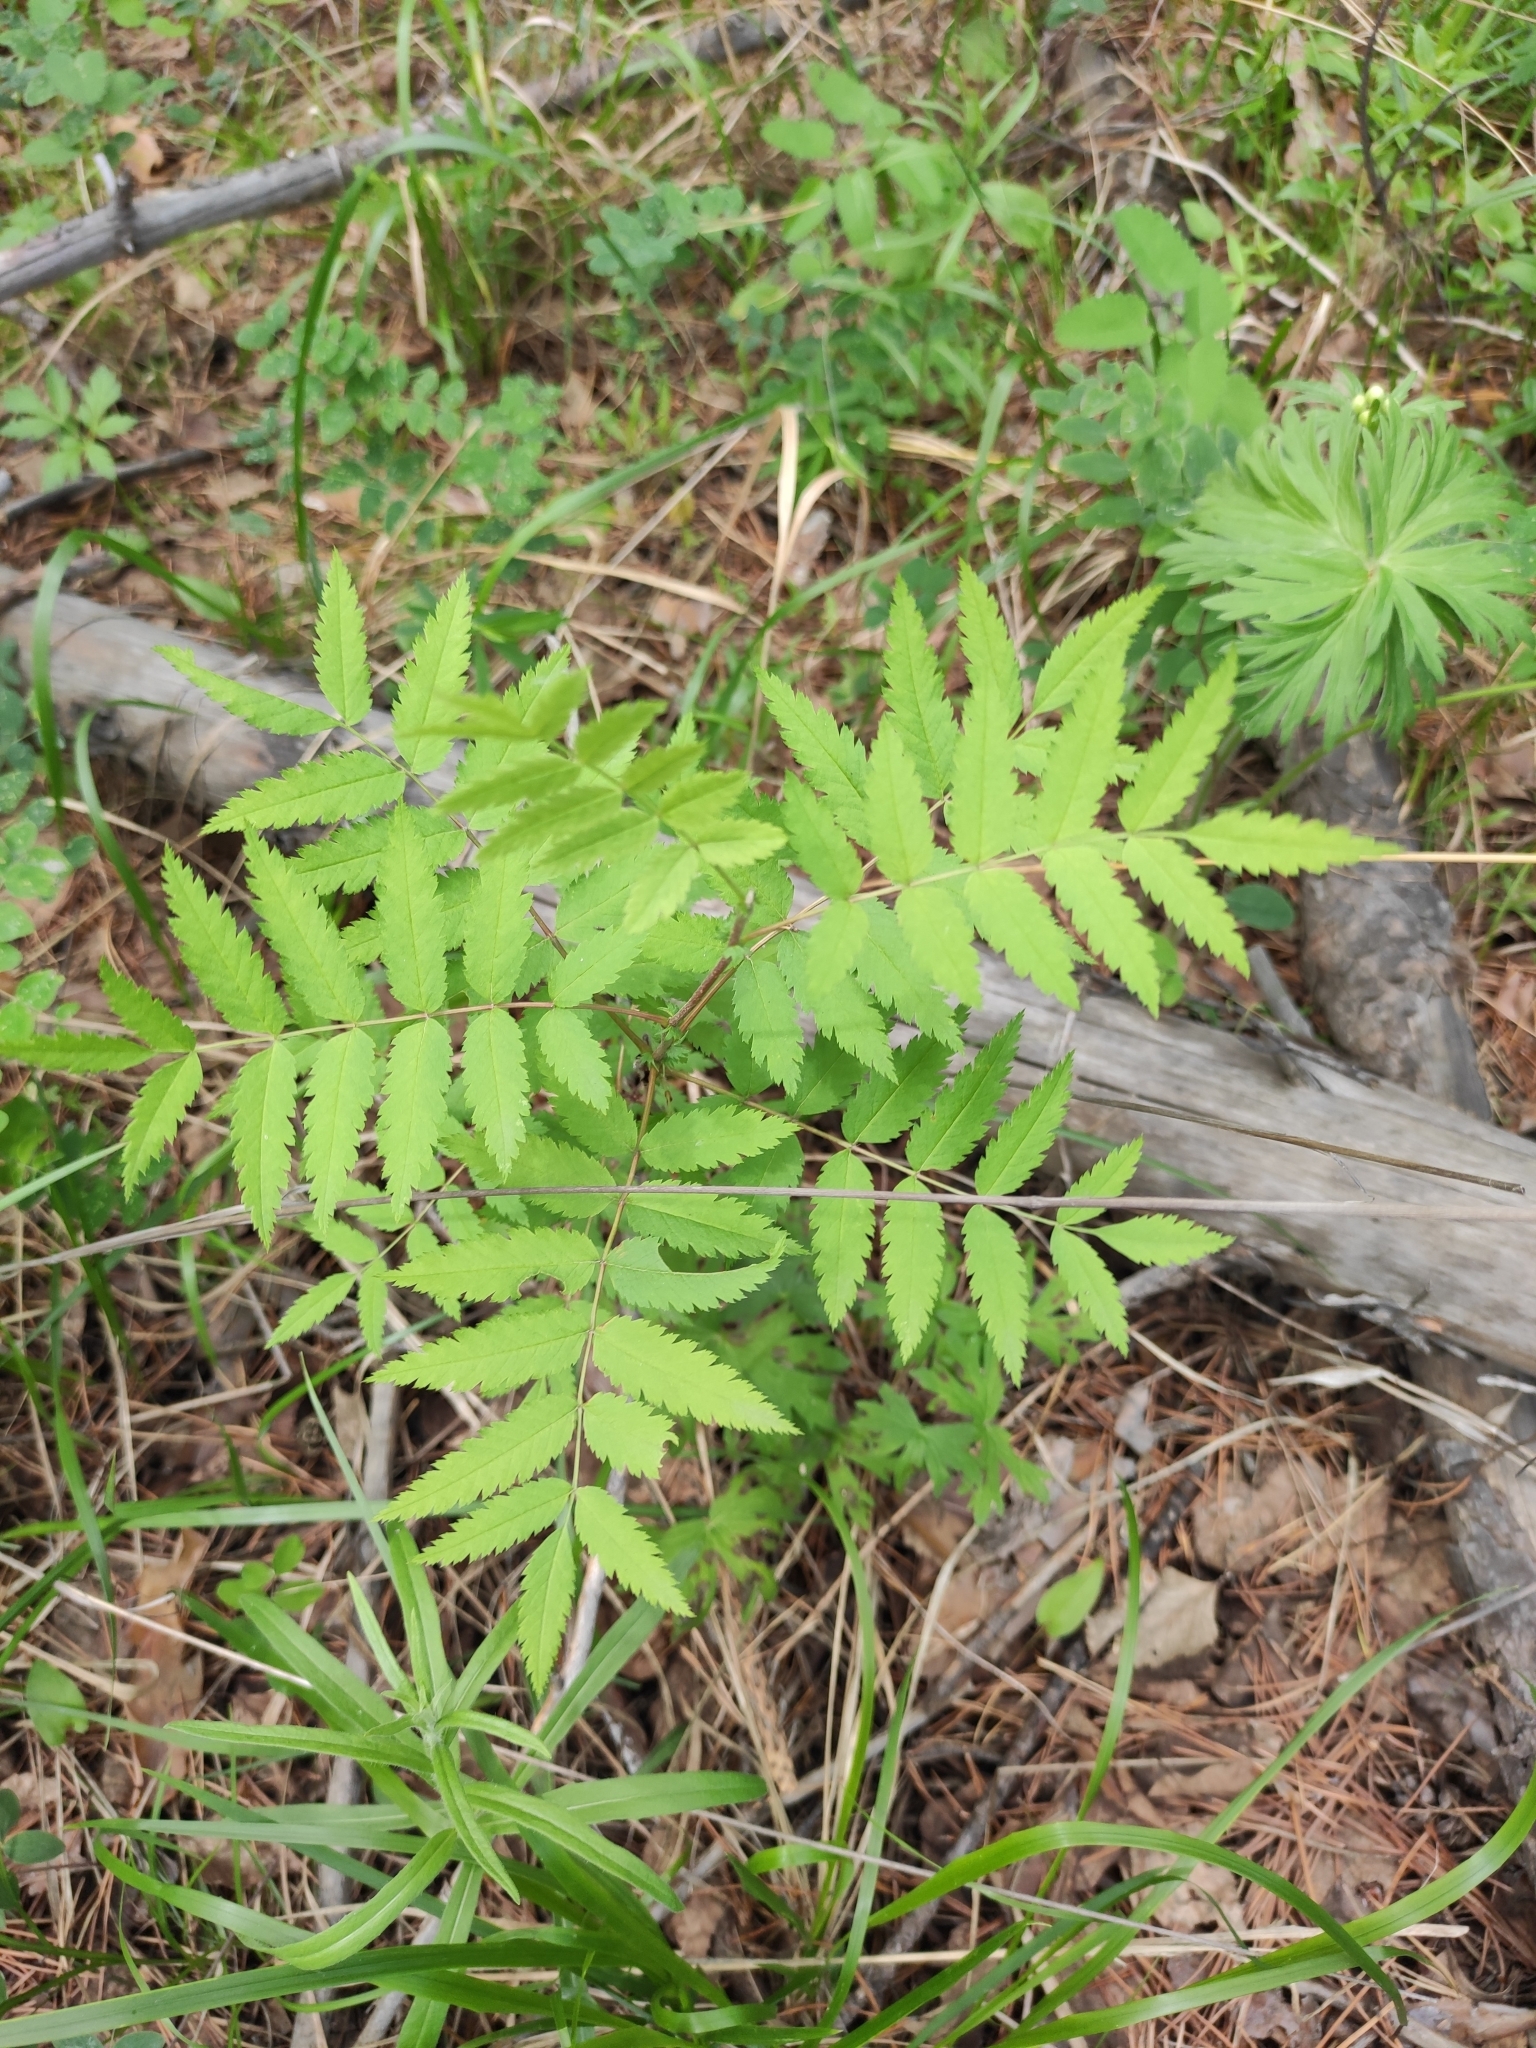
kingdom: Plantae
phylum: Tracheophyta
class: Magnoliopsida
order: Rosales
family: Rosaceae
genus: Sorbus
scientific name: Sorbus aucuparia
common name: Rowan
